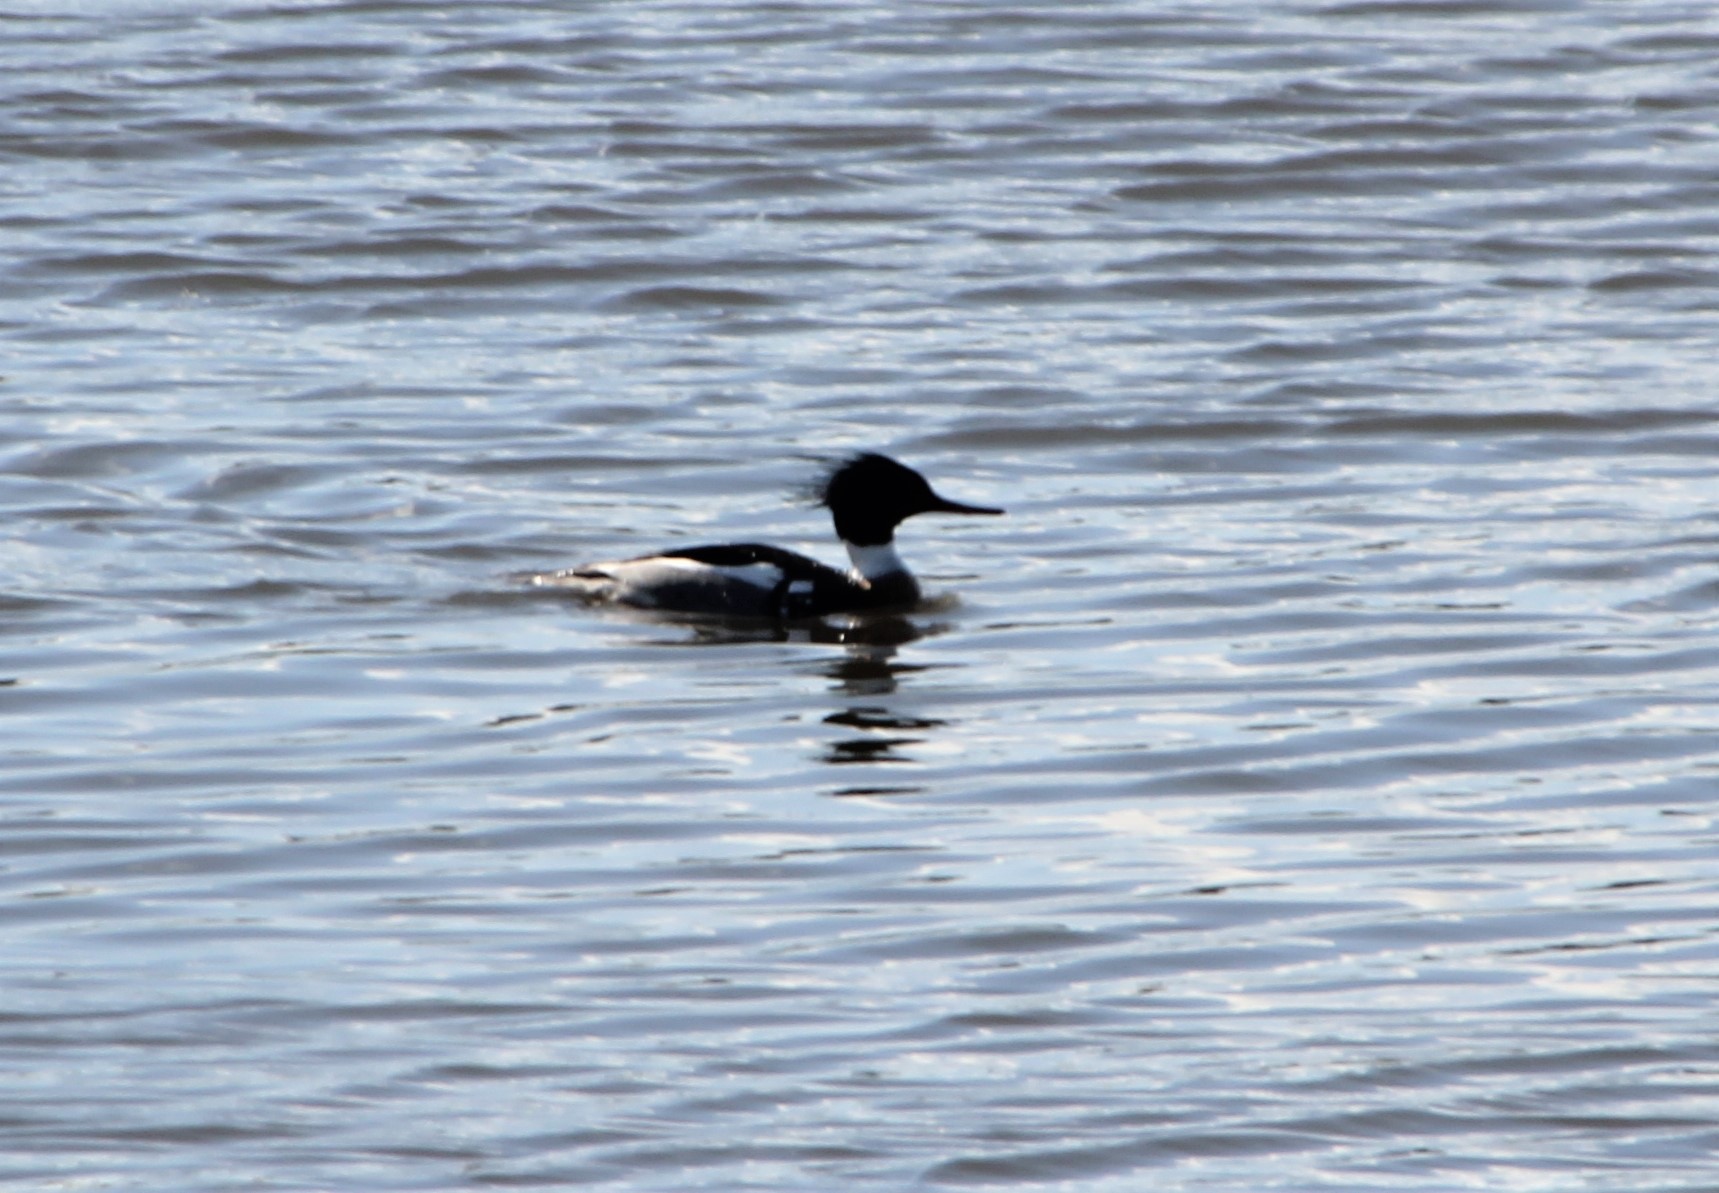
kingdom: Animalia
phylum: Chordata
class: Aves
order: Anseriformes
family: Anatidae
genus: Mergus
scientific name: Mergus serrator
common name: Red-breasted merganser
